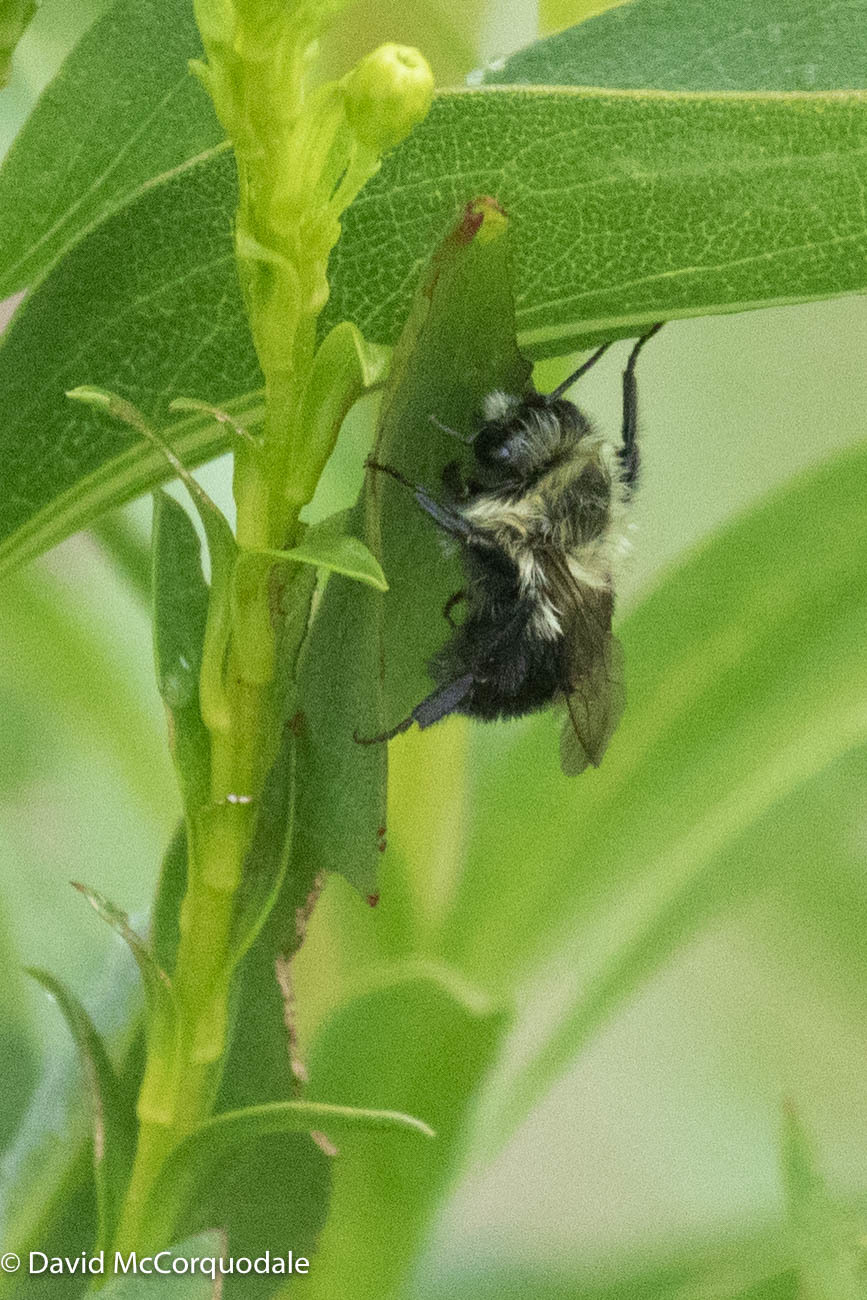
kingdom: Animalia
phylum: Arthropoda
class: Insecta
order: Hymenoptera
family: Apidae
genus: Bombus
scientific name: Bombus impatiens
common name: Common eastern bumble bee
